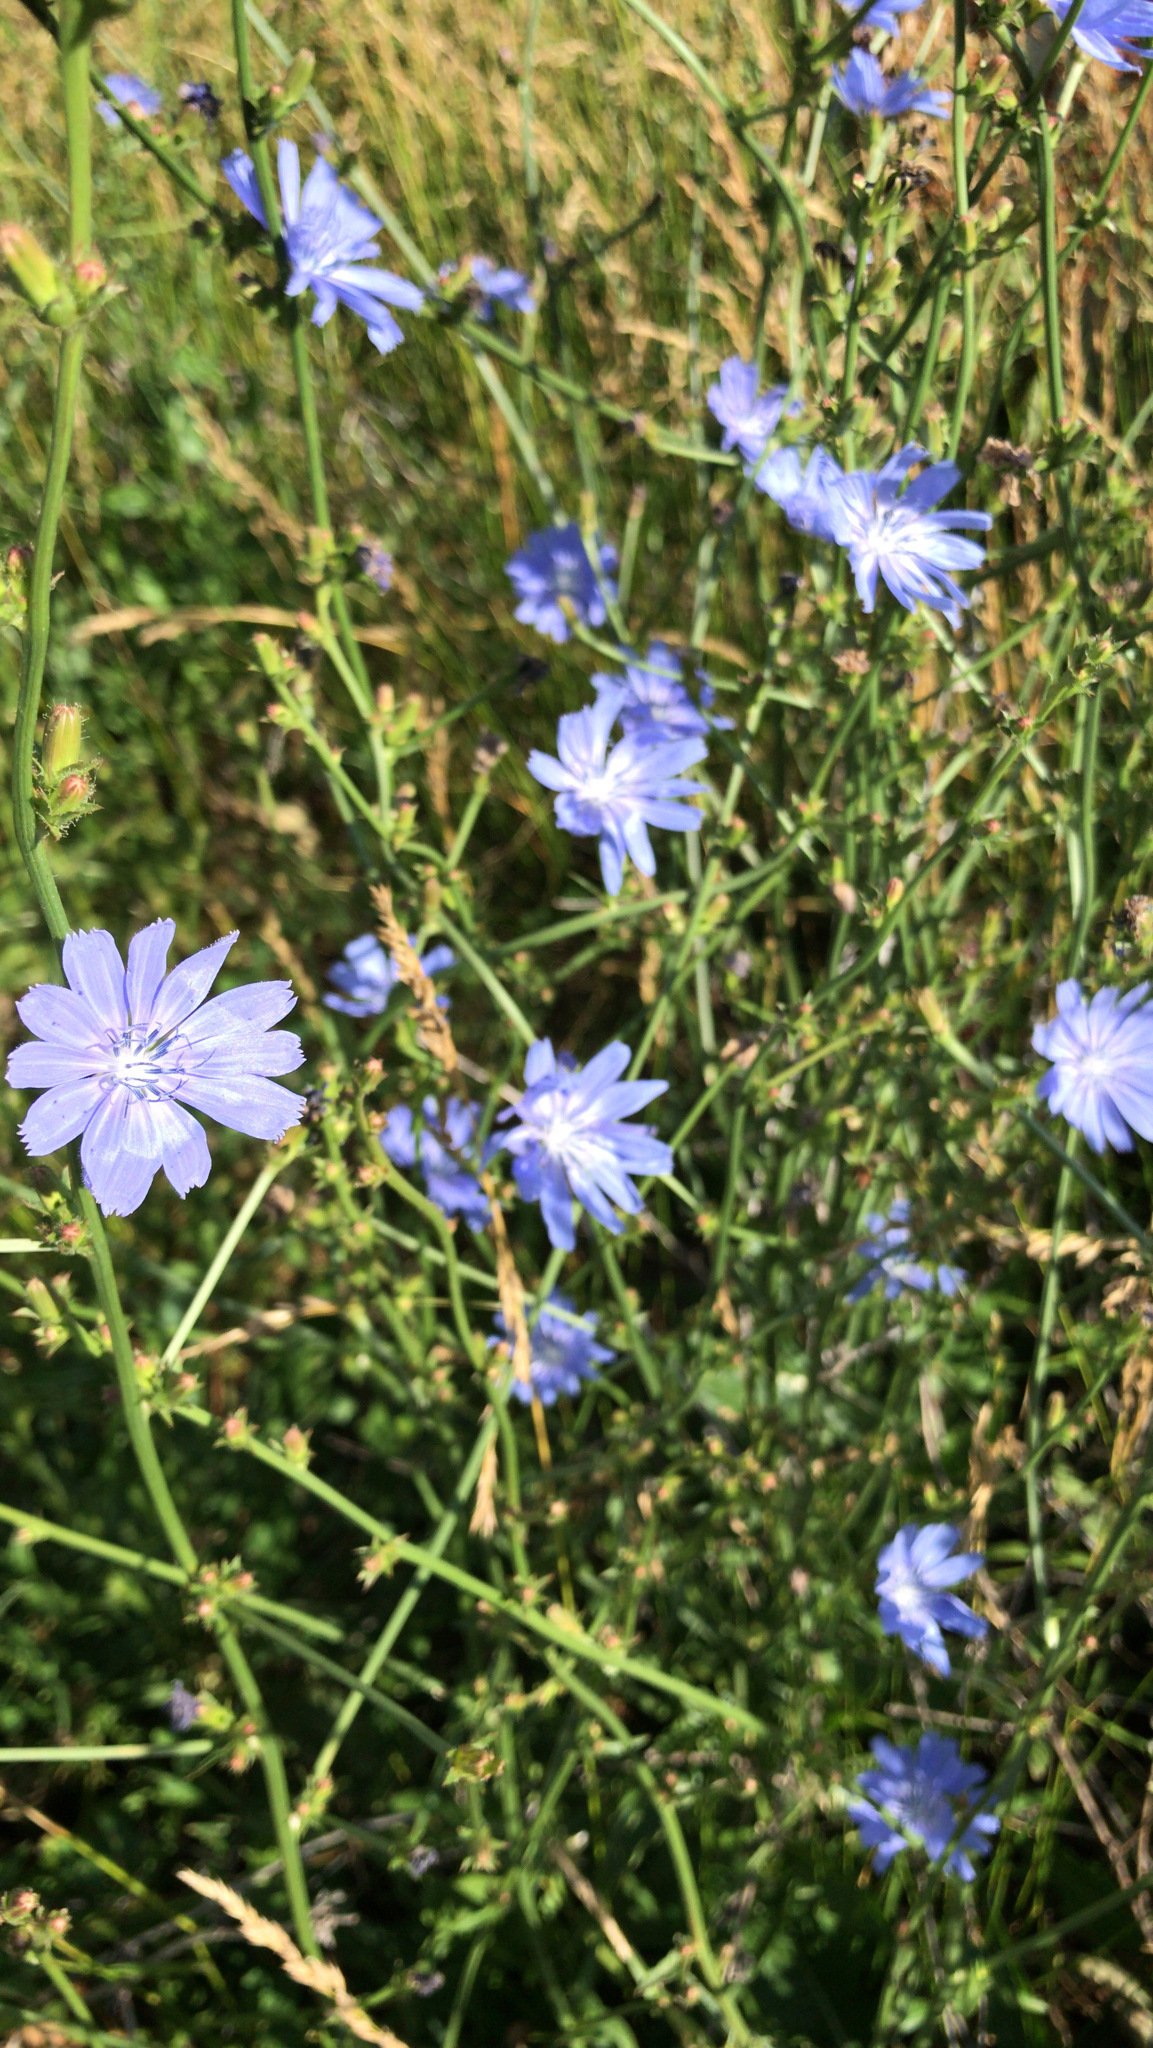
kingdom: Plantae
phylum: Tracheophyta
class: Magnoliopsida
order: Asterales
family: Asteraceae
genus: Cichorium
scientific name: Cichorium intybus
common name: Chicory
